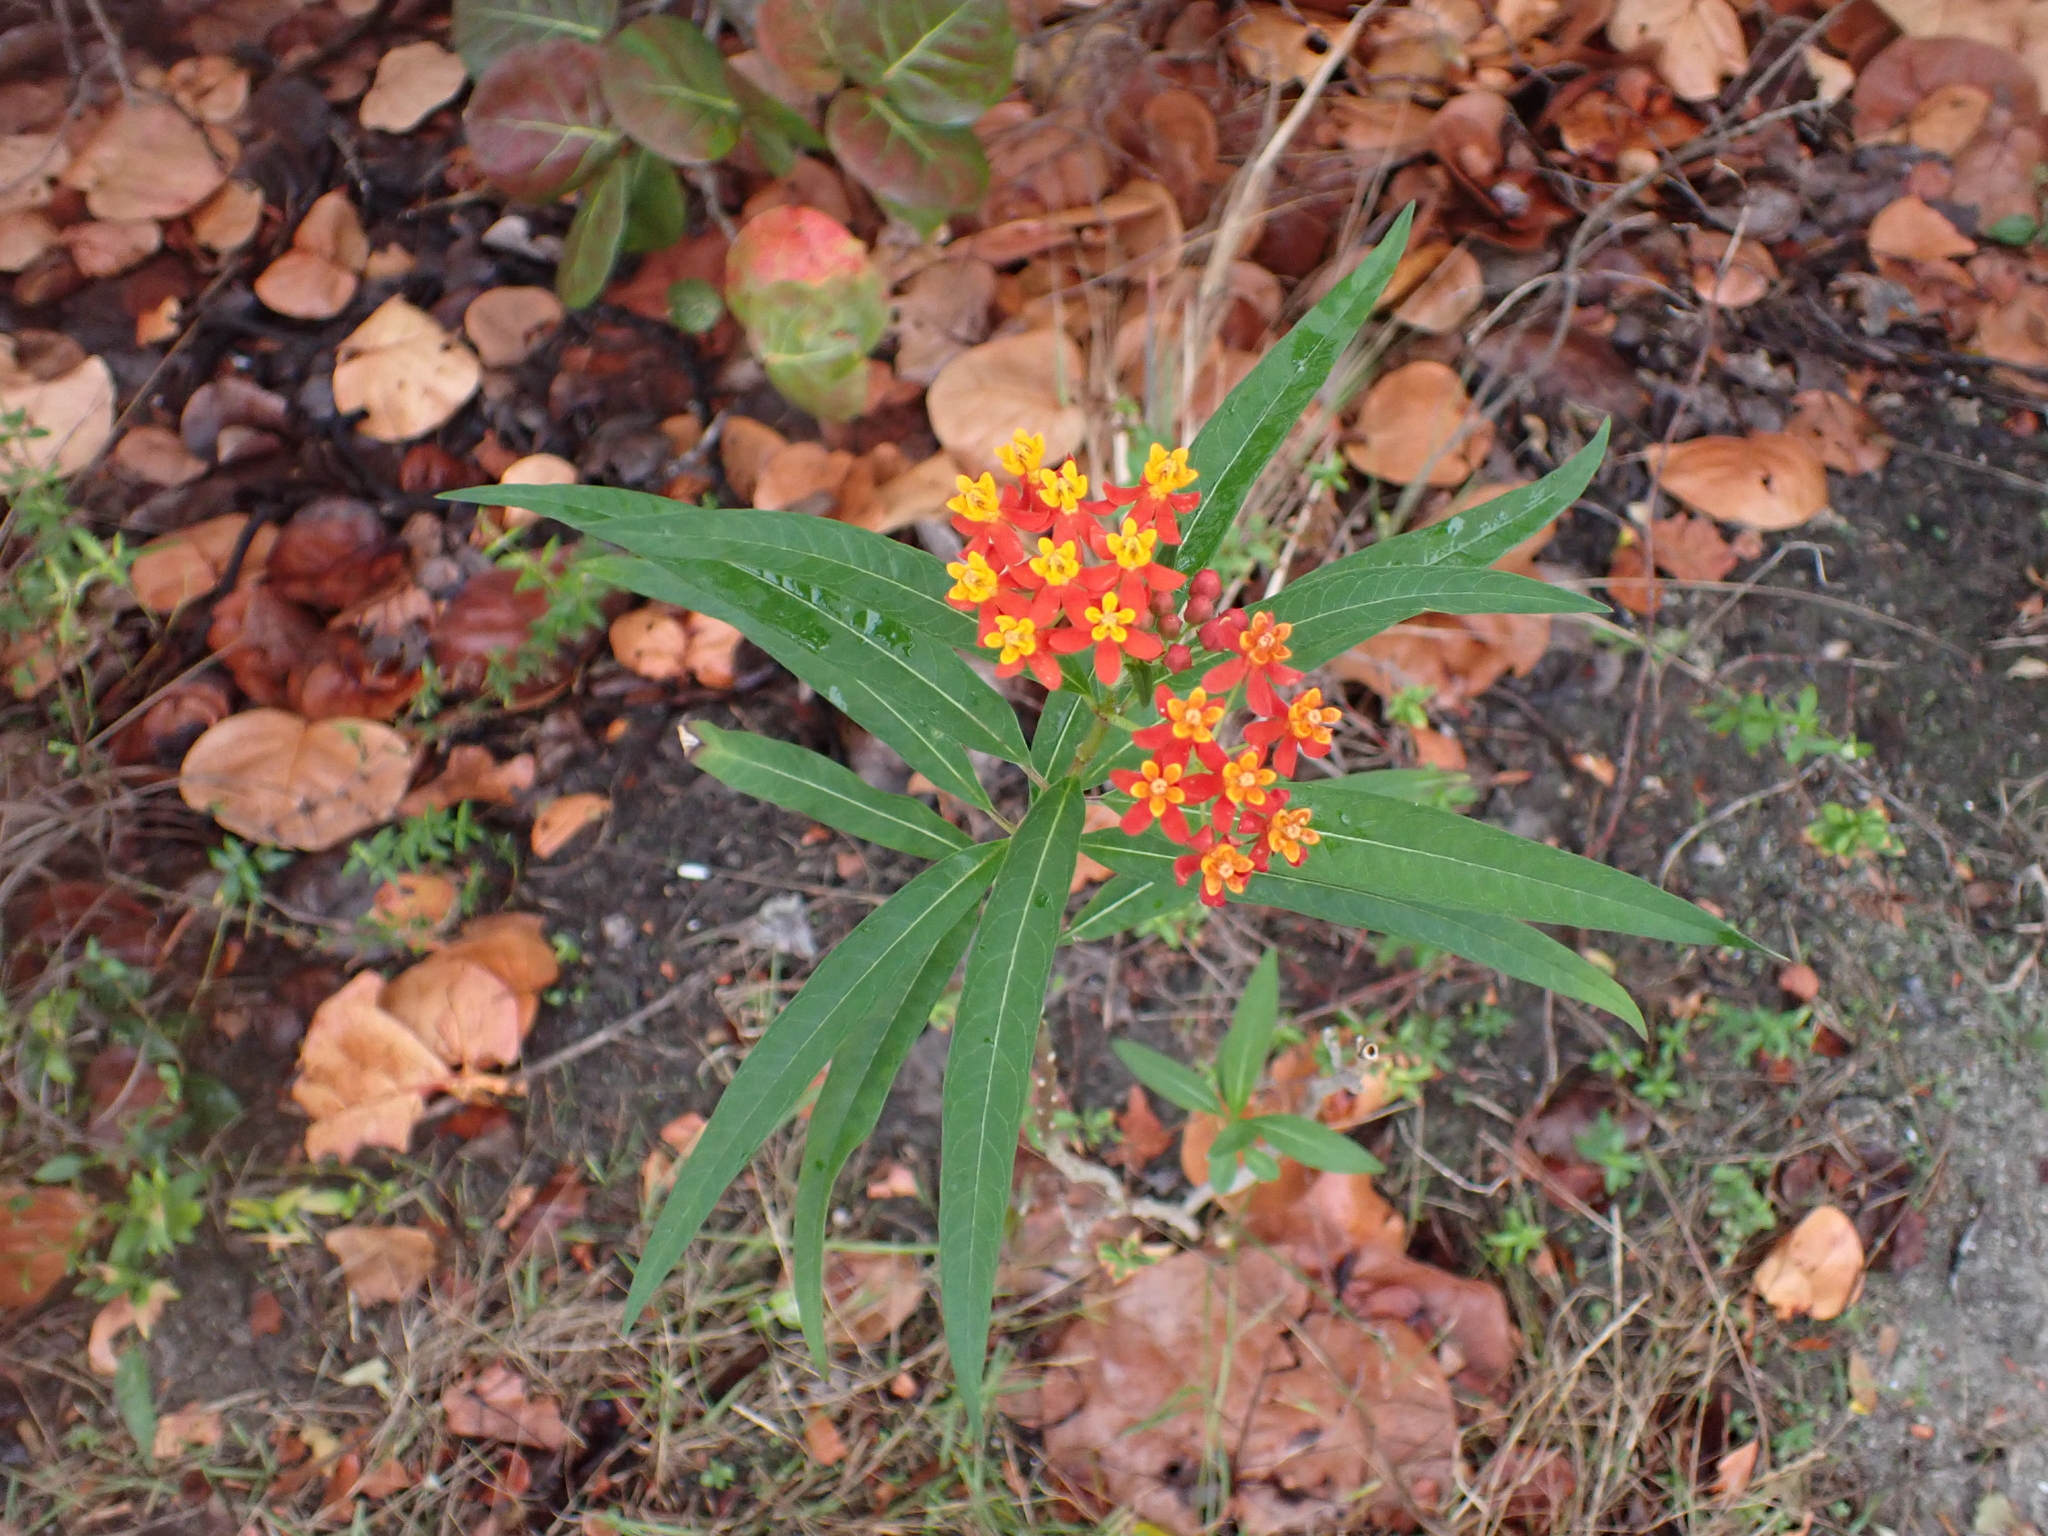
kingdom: Plantae
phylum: Tracheophyta
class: Magnoliopsida
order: Gentianales
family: Apocynaceae
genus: Asclepias
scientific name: Asclepias curassavica
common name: Bloodflower
